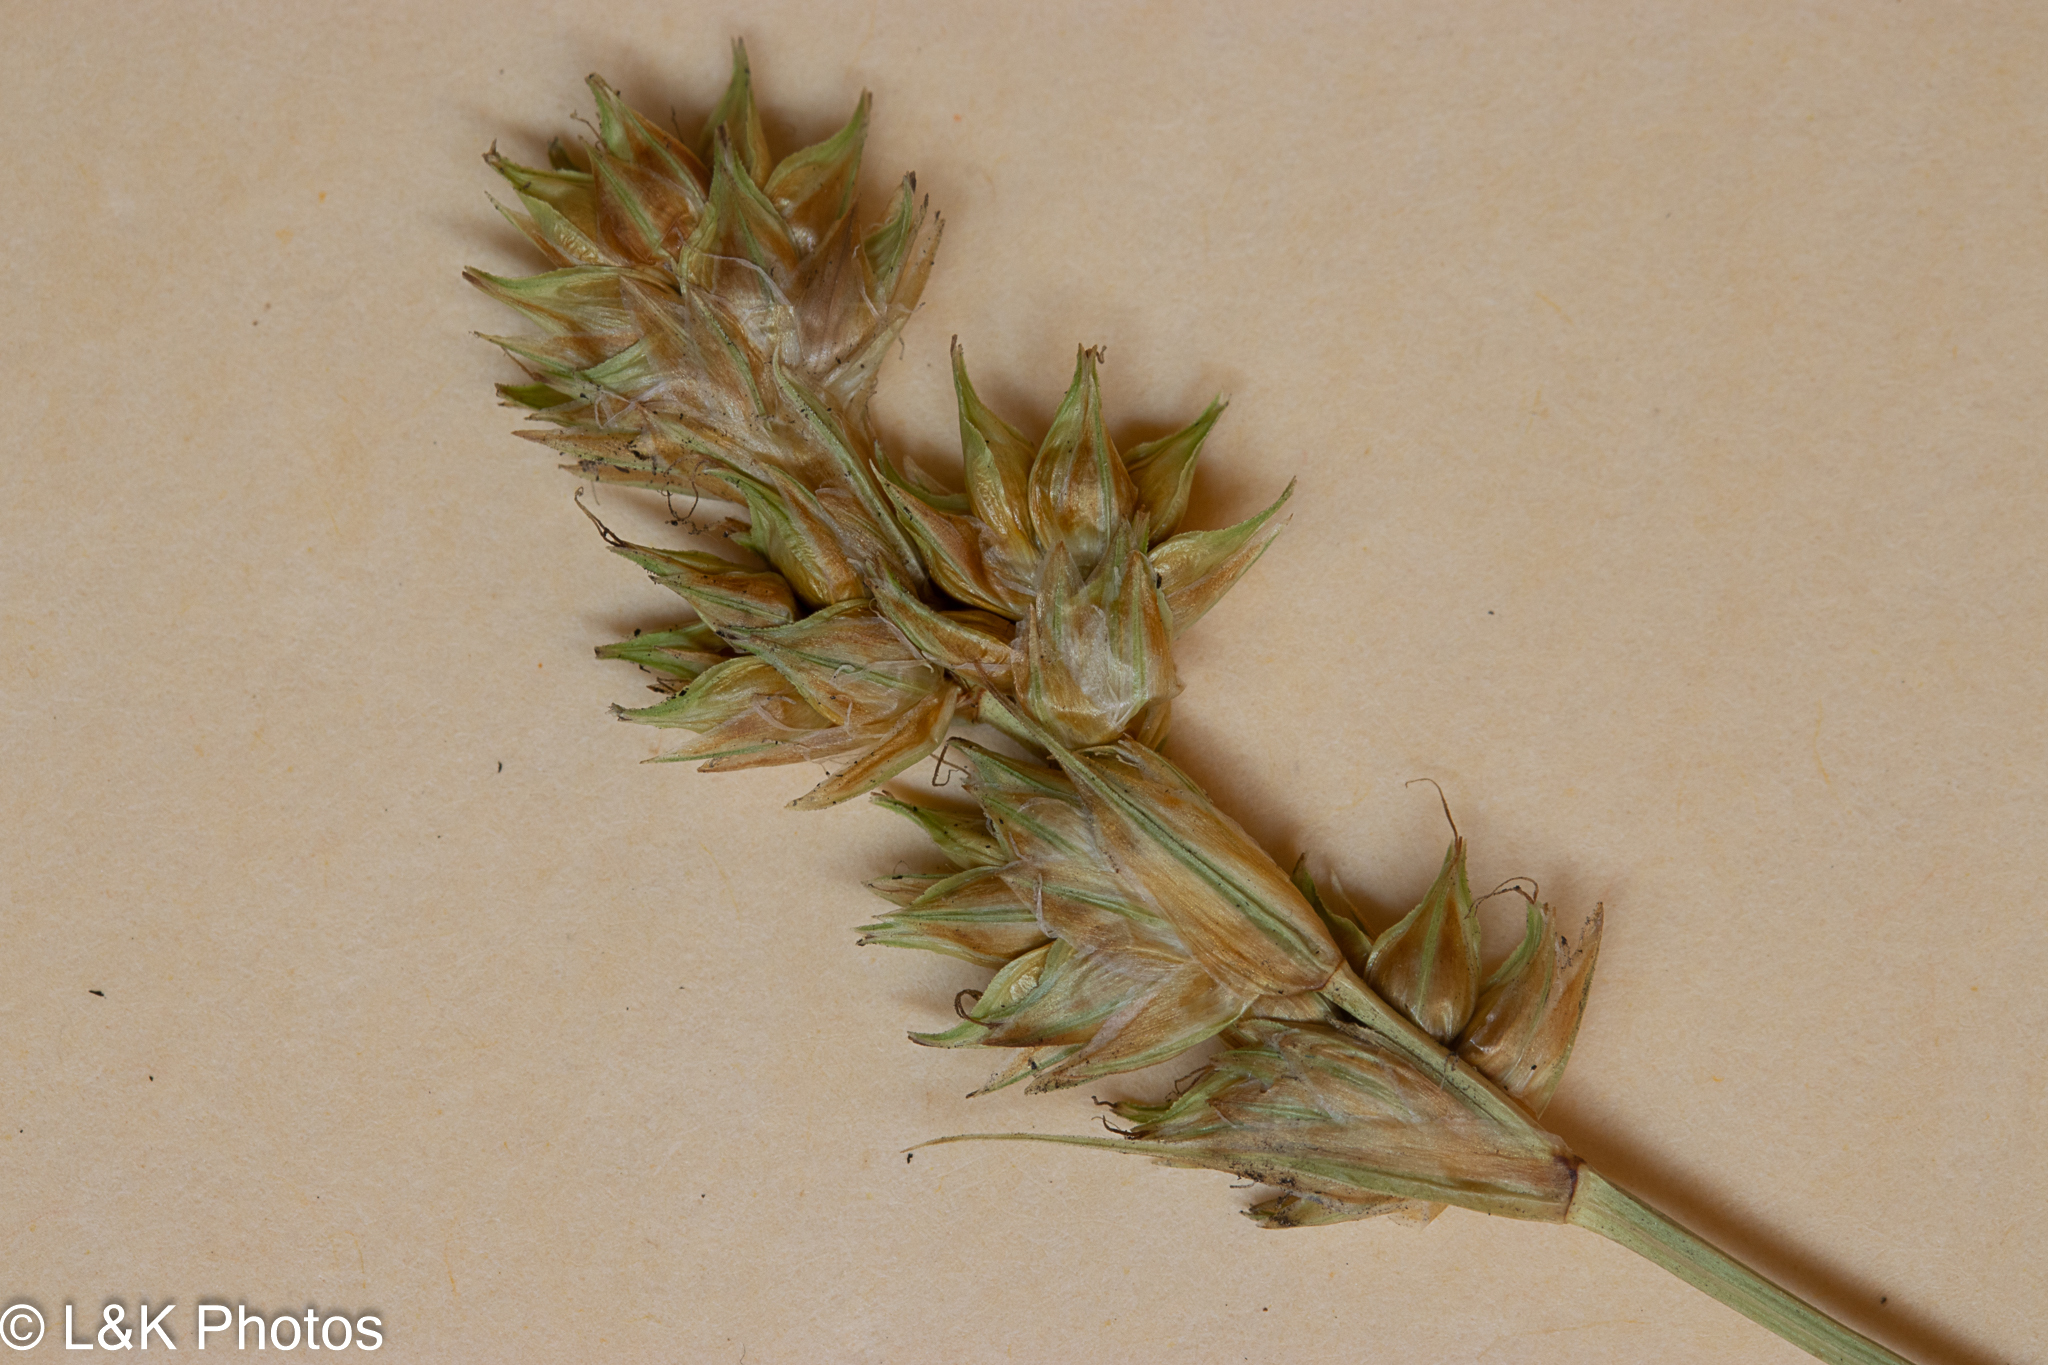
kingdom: Plantae
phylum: Tracheophyta
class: Liliopsida
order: Poales
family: Cyperaceae
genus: Carex
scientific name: Carex adusta
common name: Browned sedge
